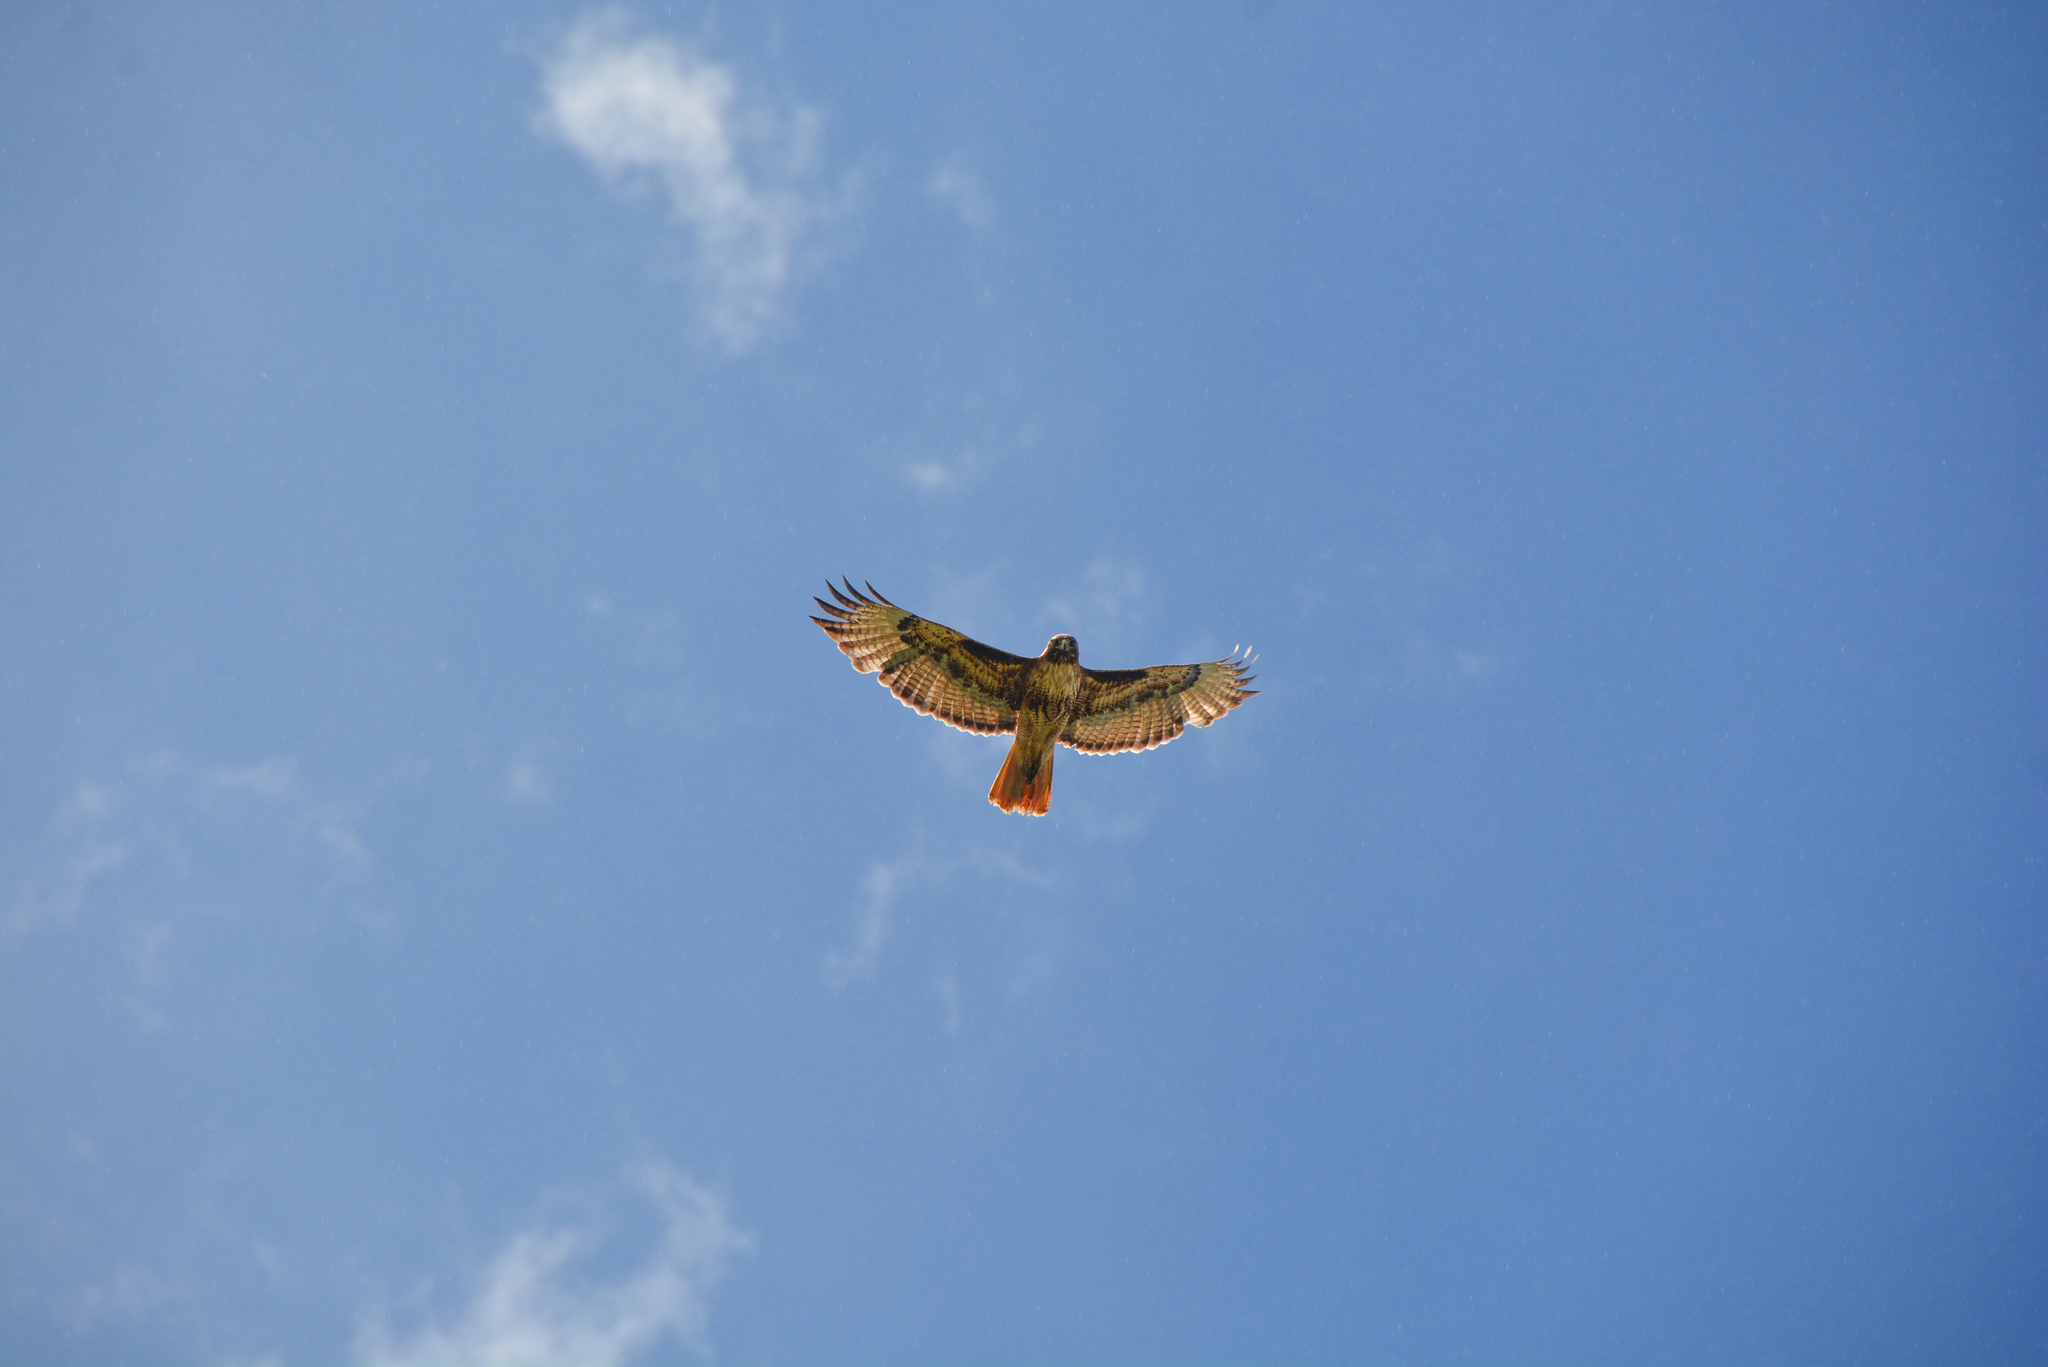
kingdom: Animalia
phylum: Chordata
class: Aves
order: Accipitriformes
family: Accipitridae
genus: Buteo
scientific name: Buteo jamaicensis
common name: Red-tailed hawk
